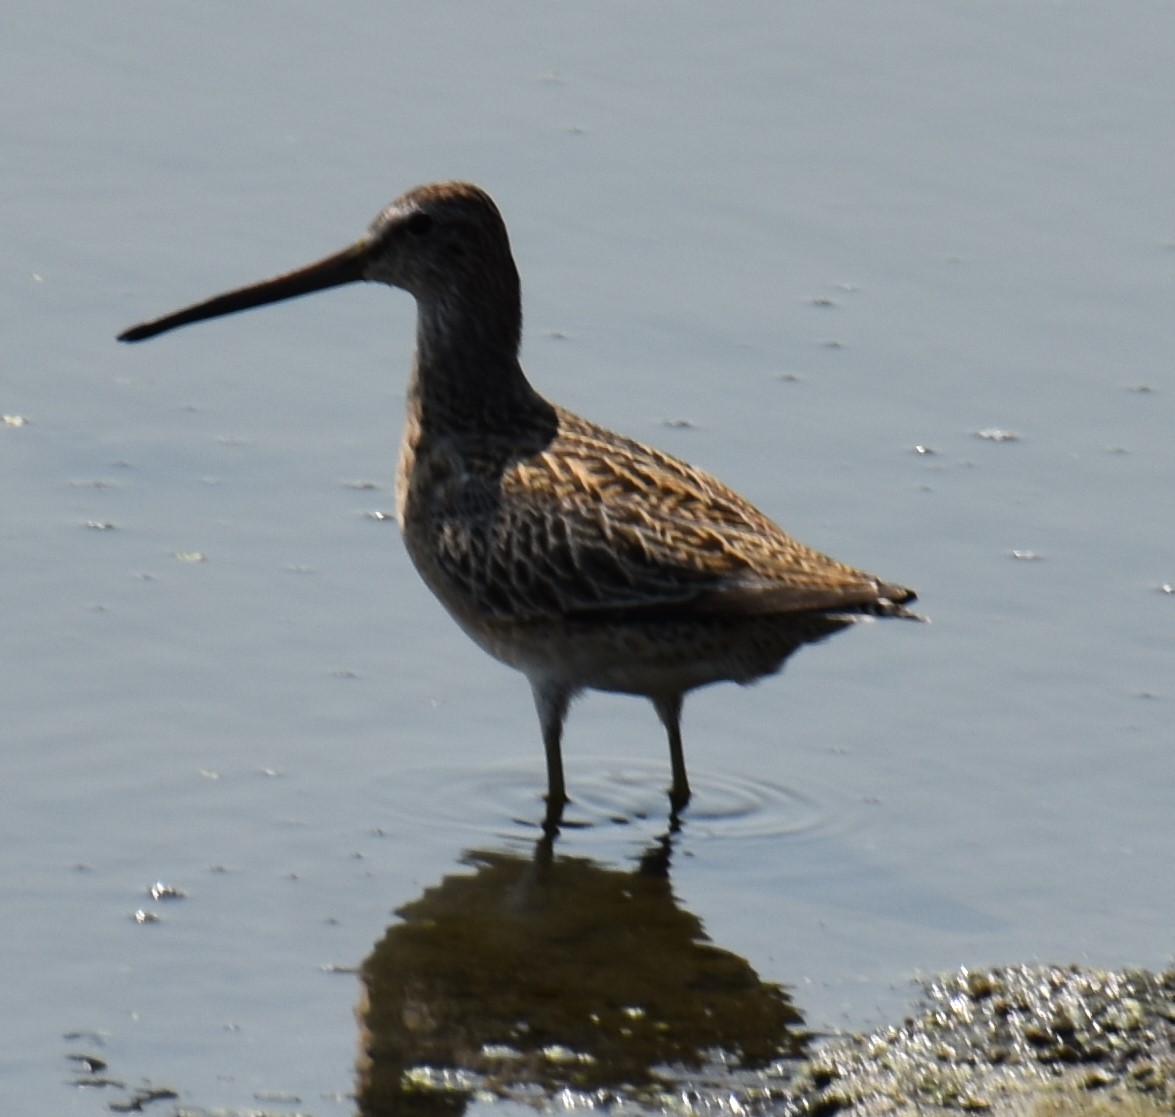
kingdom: Animalia
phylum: Chordata
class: Aves
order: Charadriiformes
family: Scolopacidae
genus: Limnodromus
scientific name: Limnodromus griseus
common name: Short-billed dowitcher
